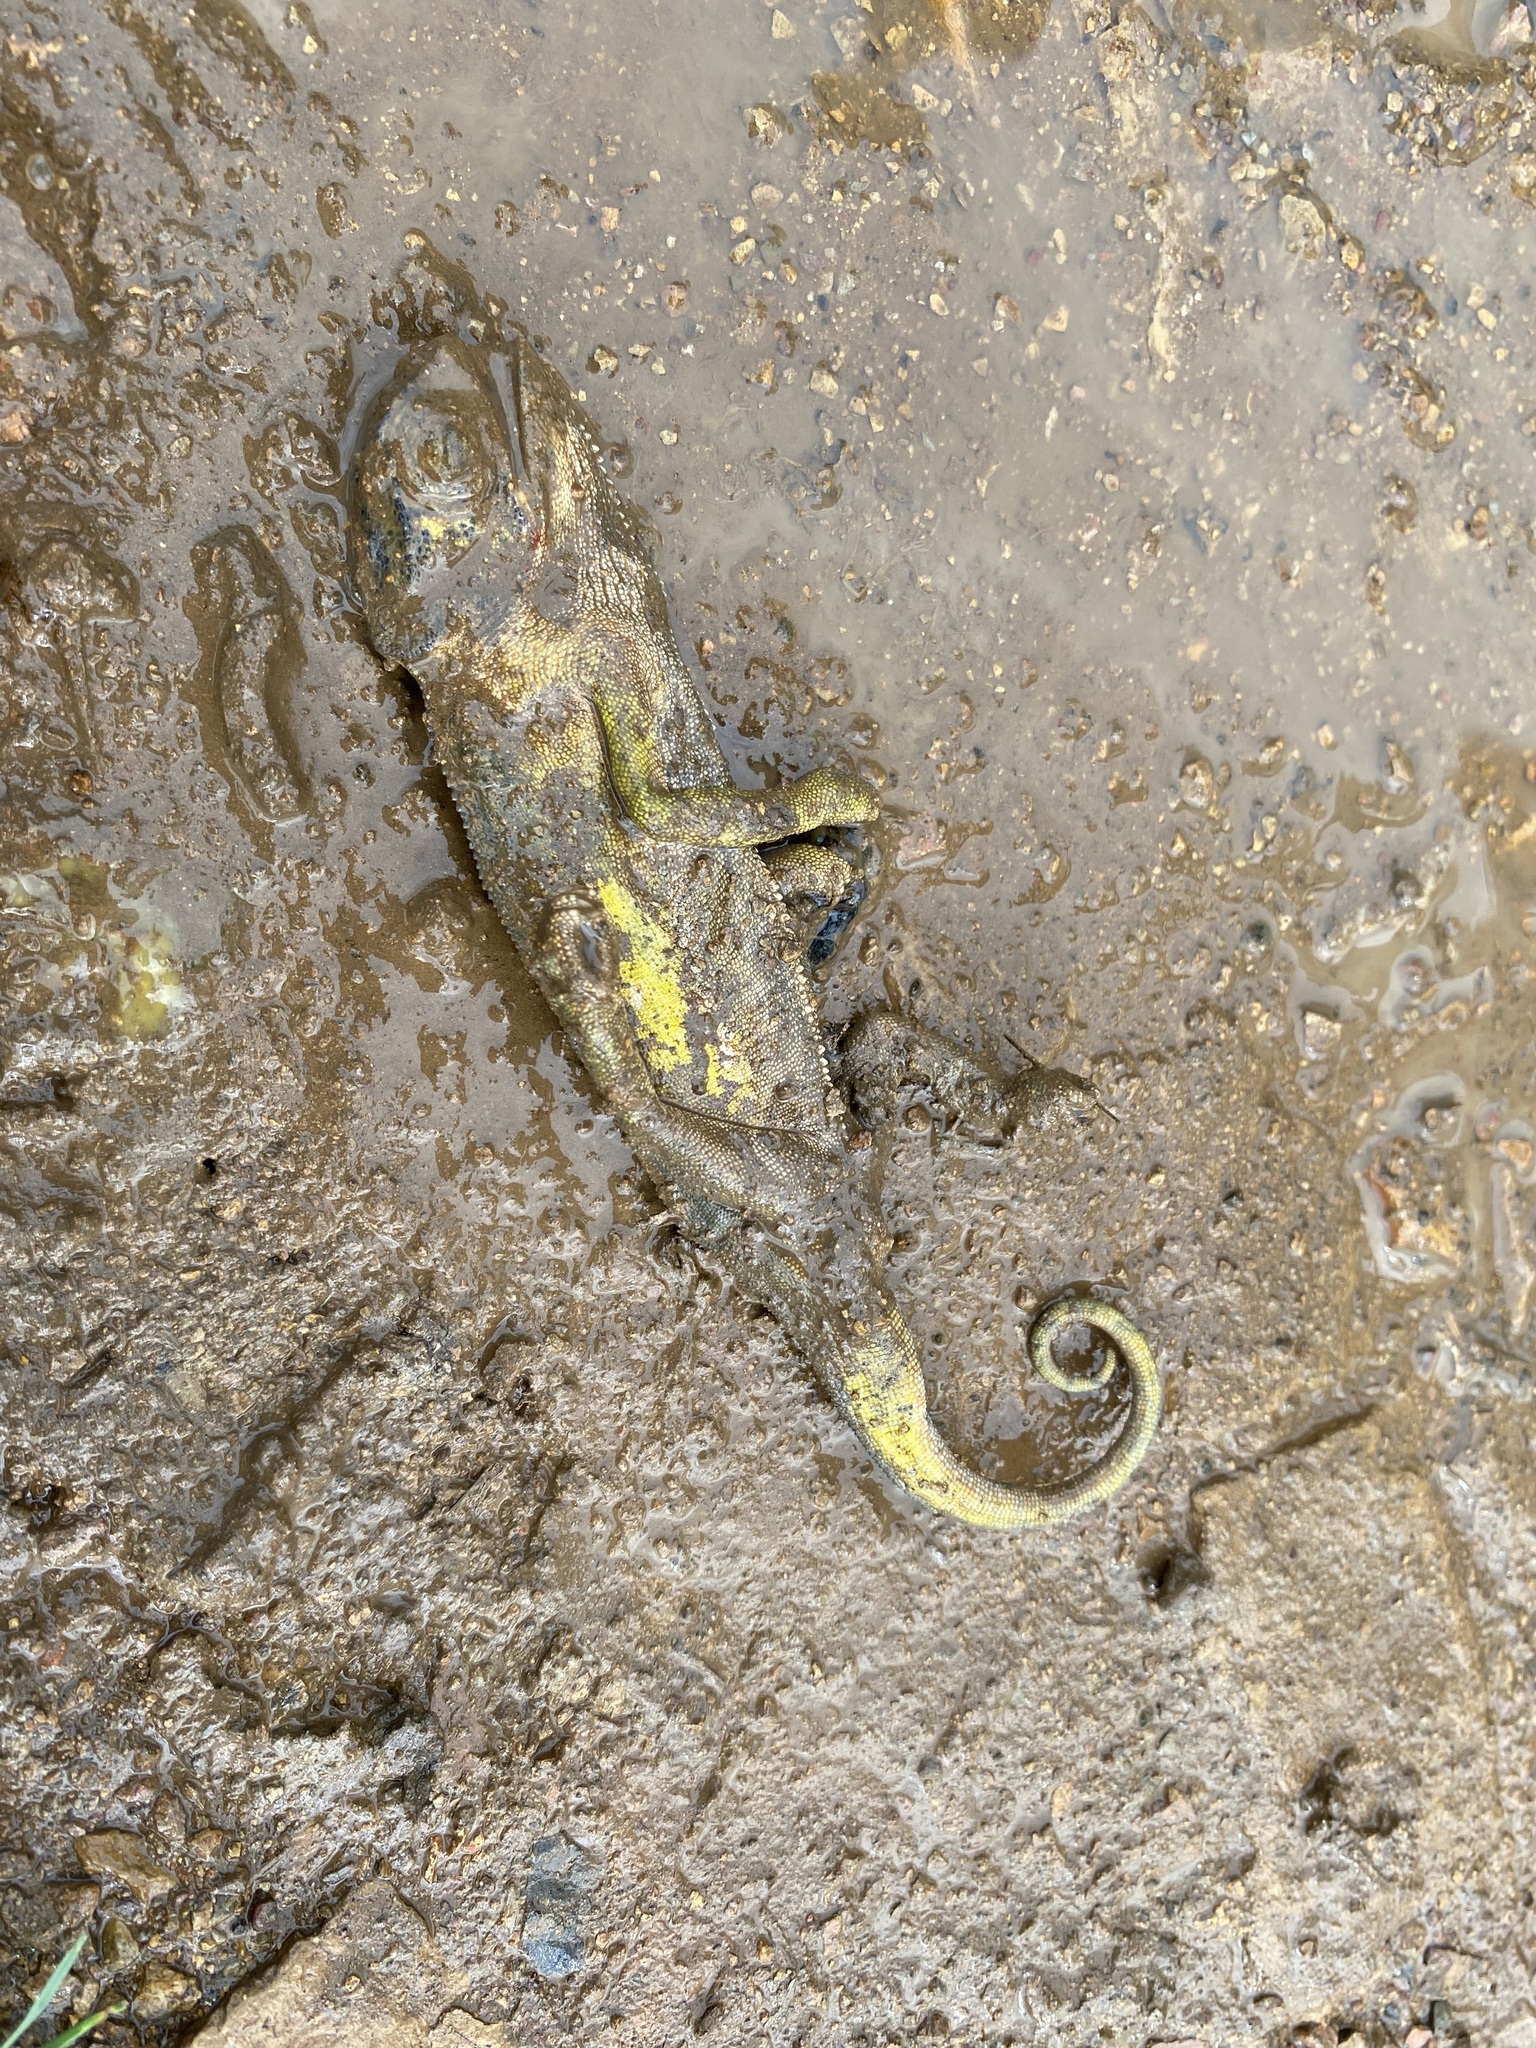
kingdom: Animalia
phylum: Chordata
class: Squamata
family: Chamaeleonidae
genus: Chamaeleo
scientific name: Chamaeleo dilepis
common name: Flapneck chameleon
